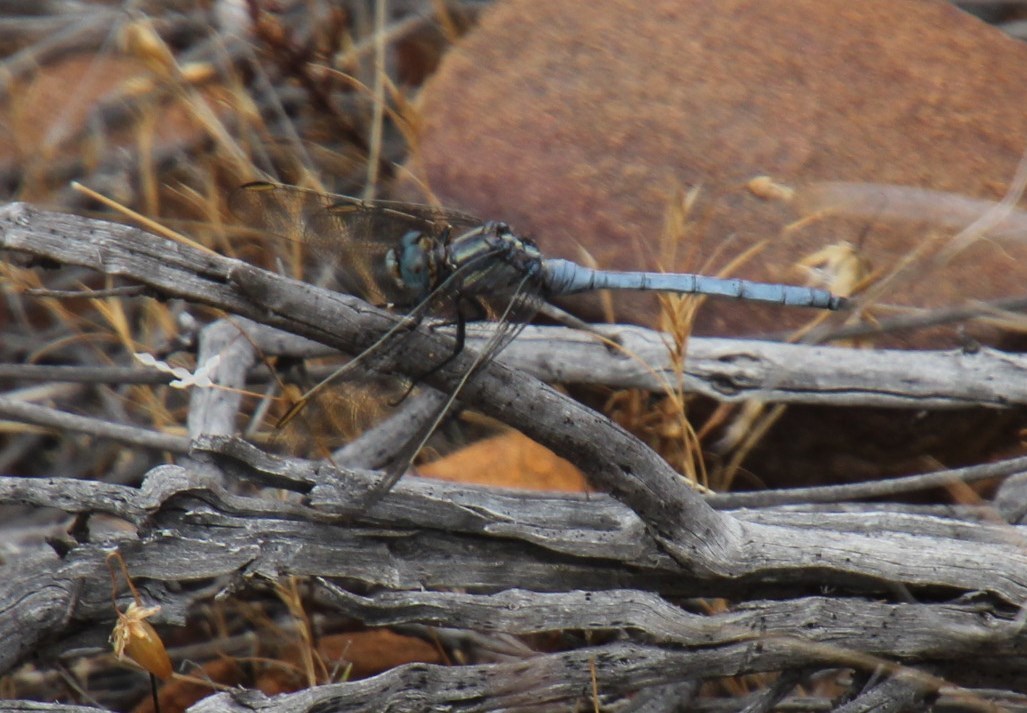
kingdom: Animalia
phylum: Arthropoda
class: Insecta
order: Odonata
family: Libellulidae
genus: Orthetrum
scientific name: Orthetrum julia
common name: Julia skimmer
